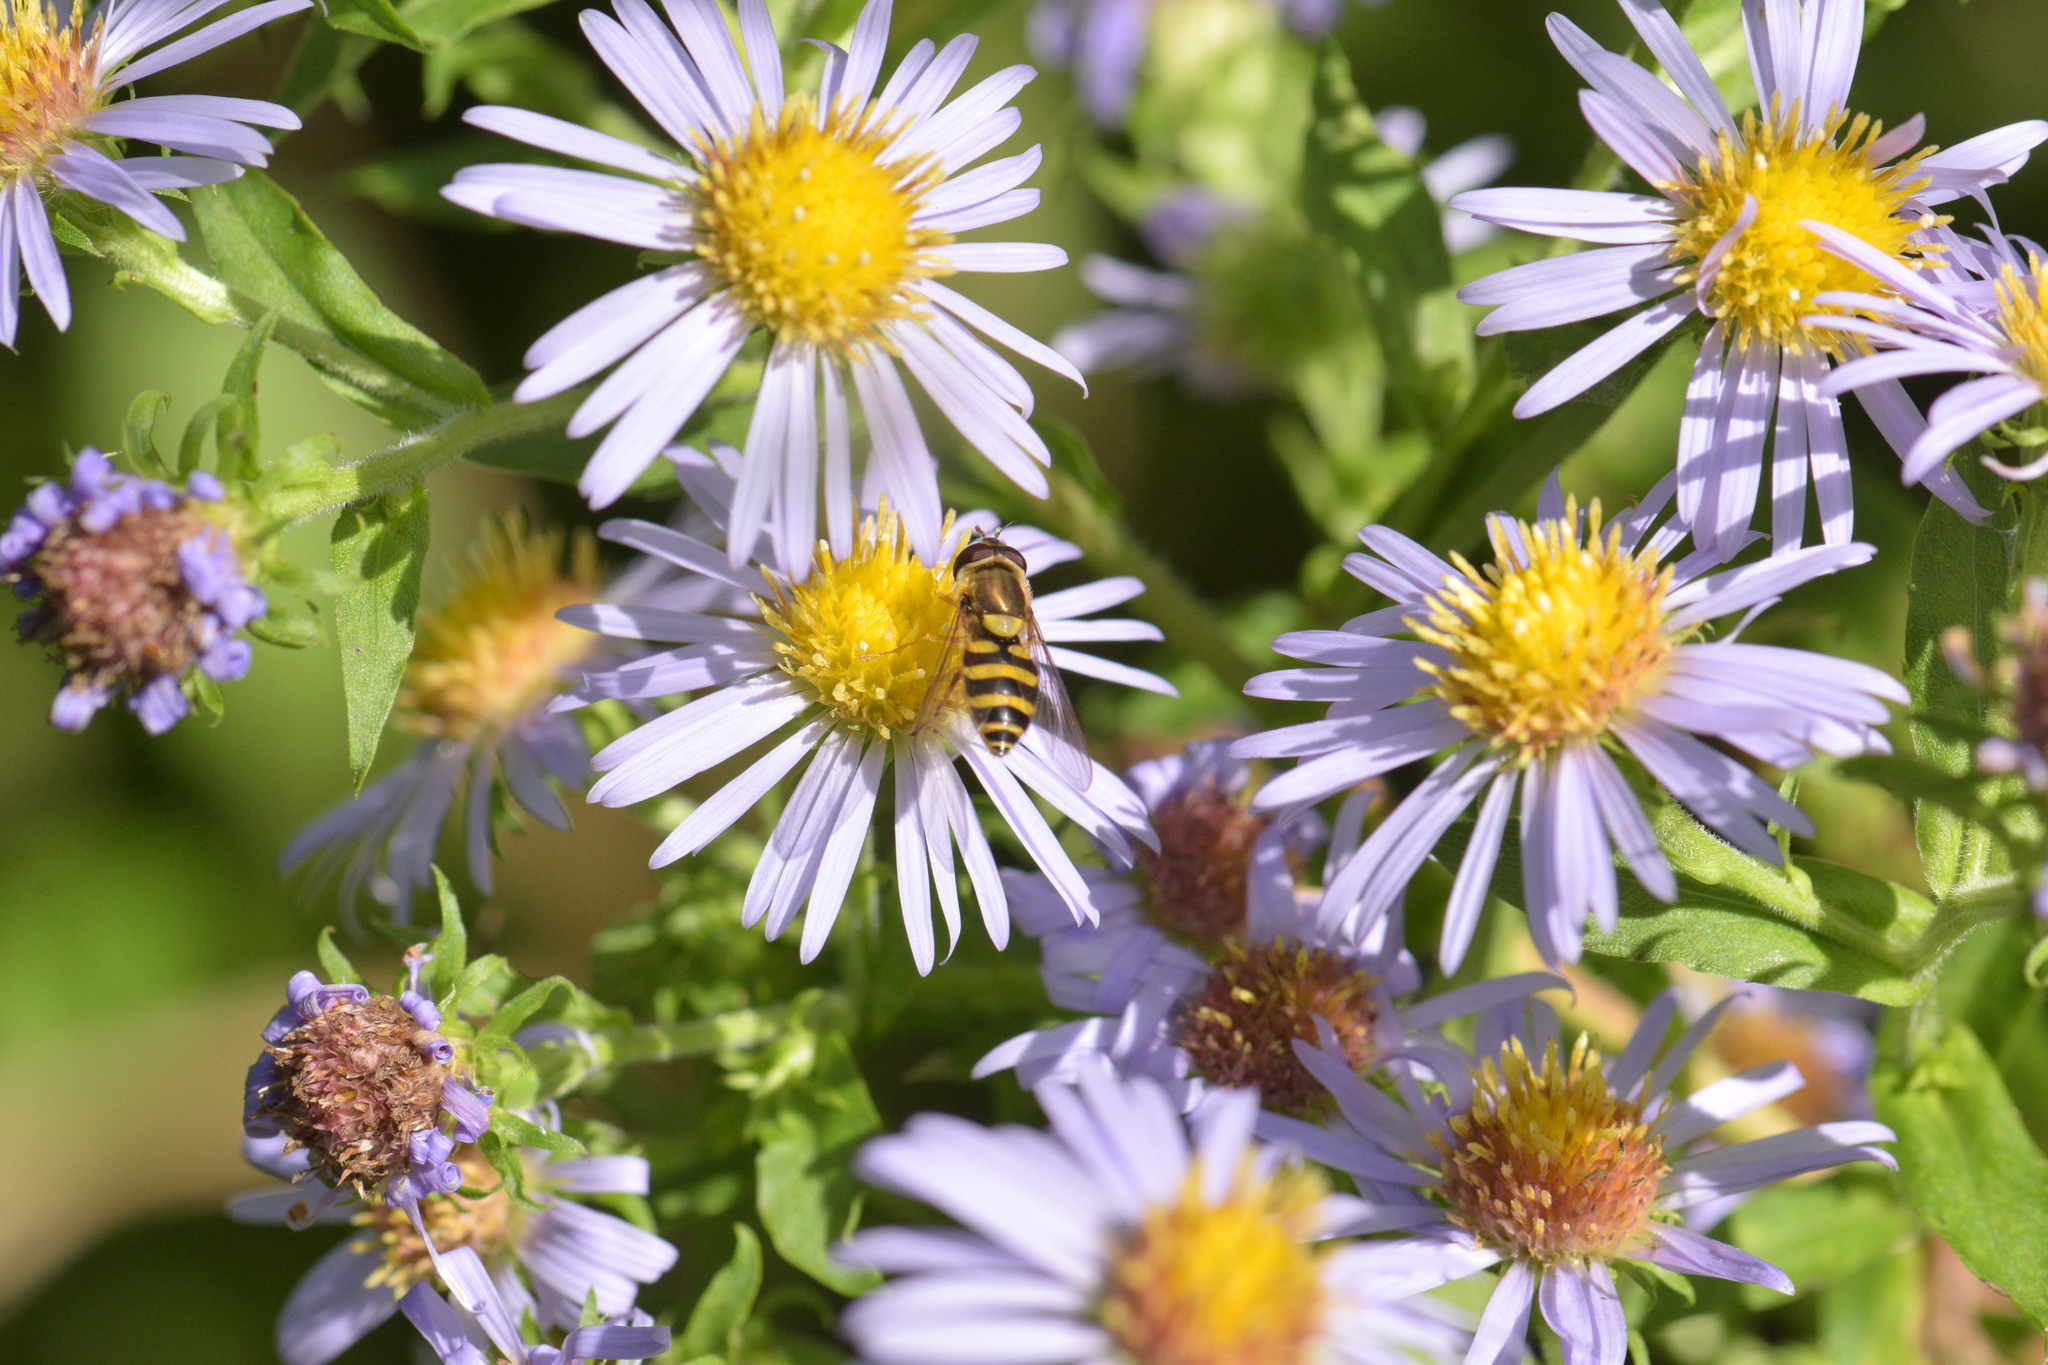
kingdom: Animalia
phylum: Arthropoda
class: Insecta
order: Diptera
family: Syrphidae
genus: Syrphus
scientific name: Syrphus rectus
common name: Yellow-legged flower fly
